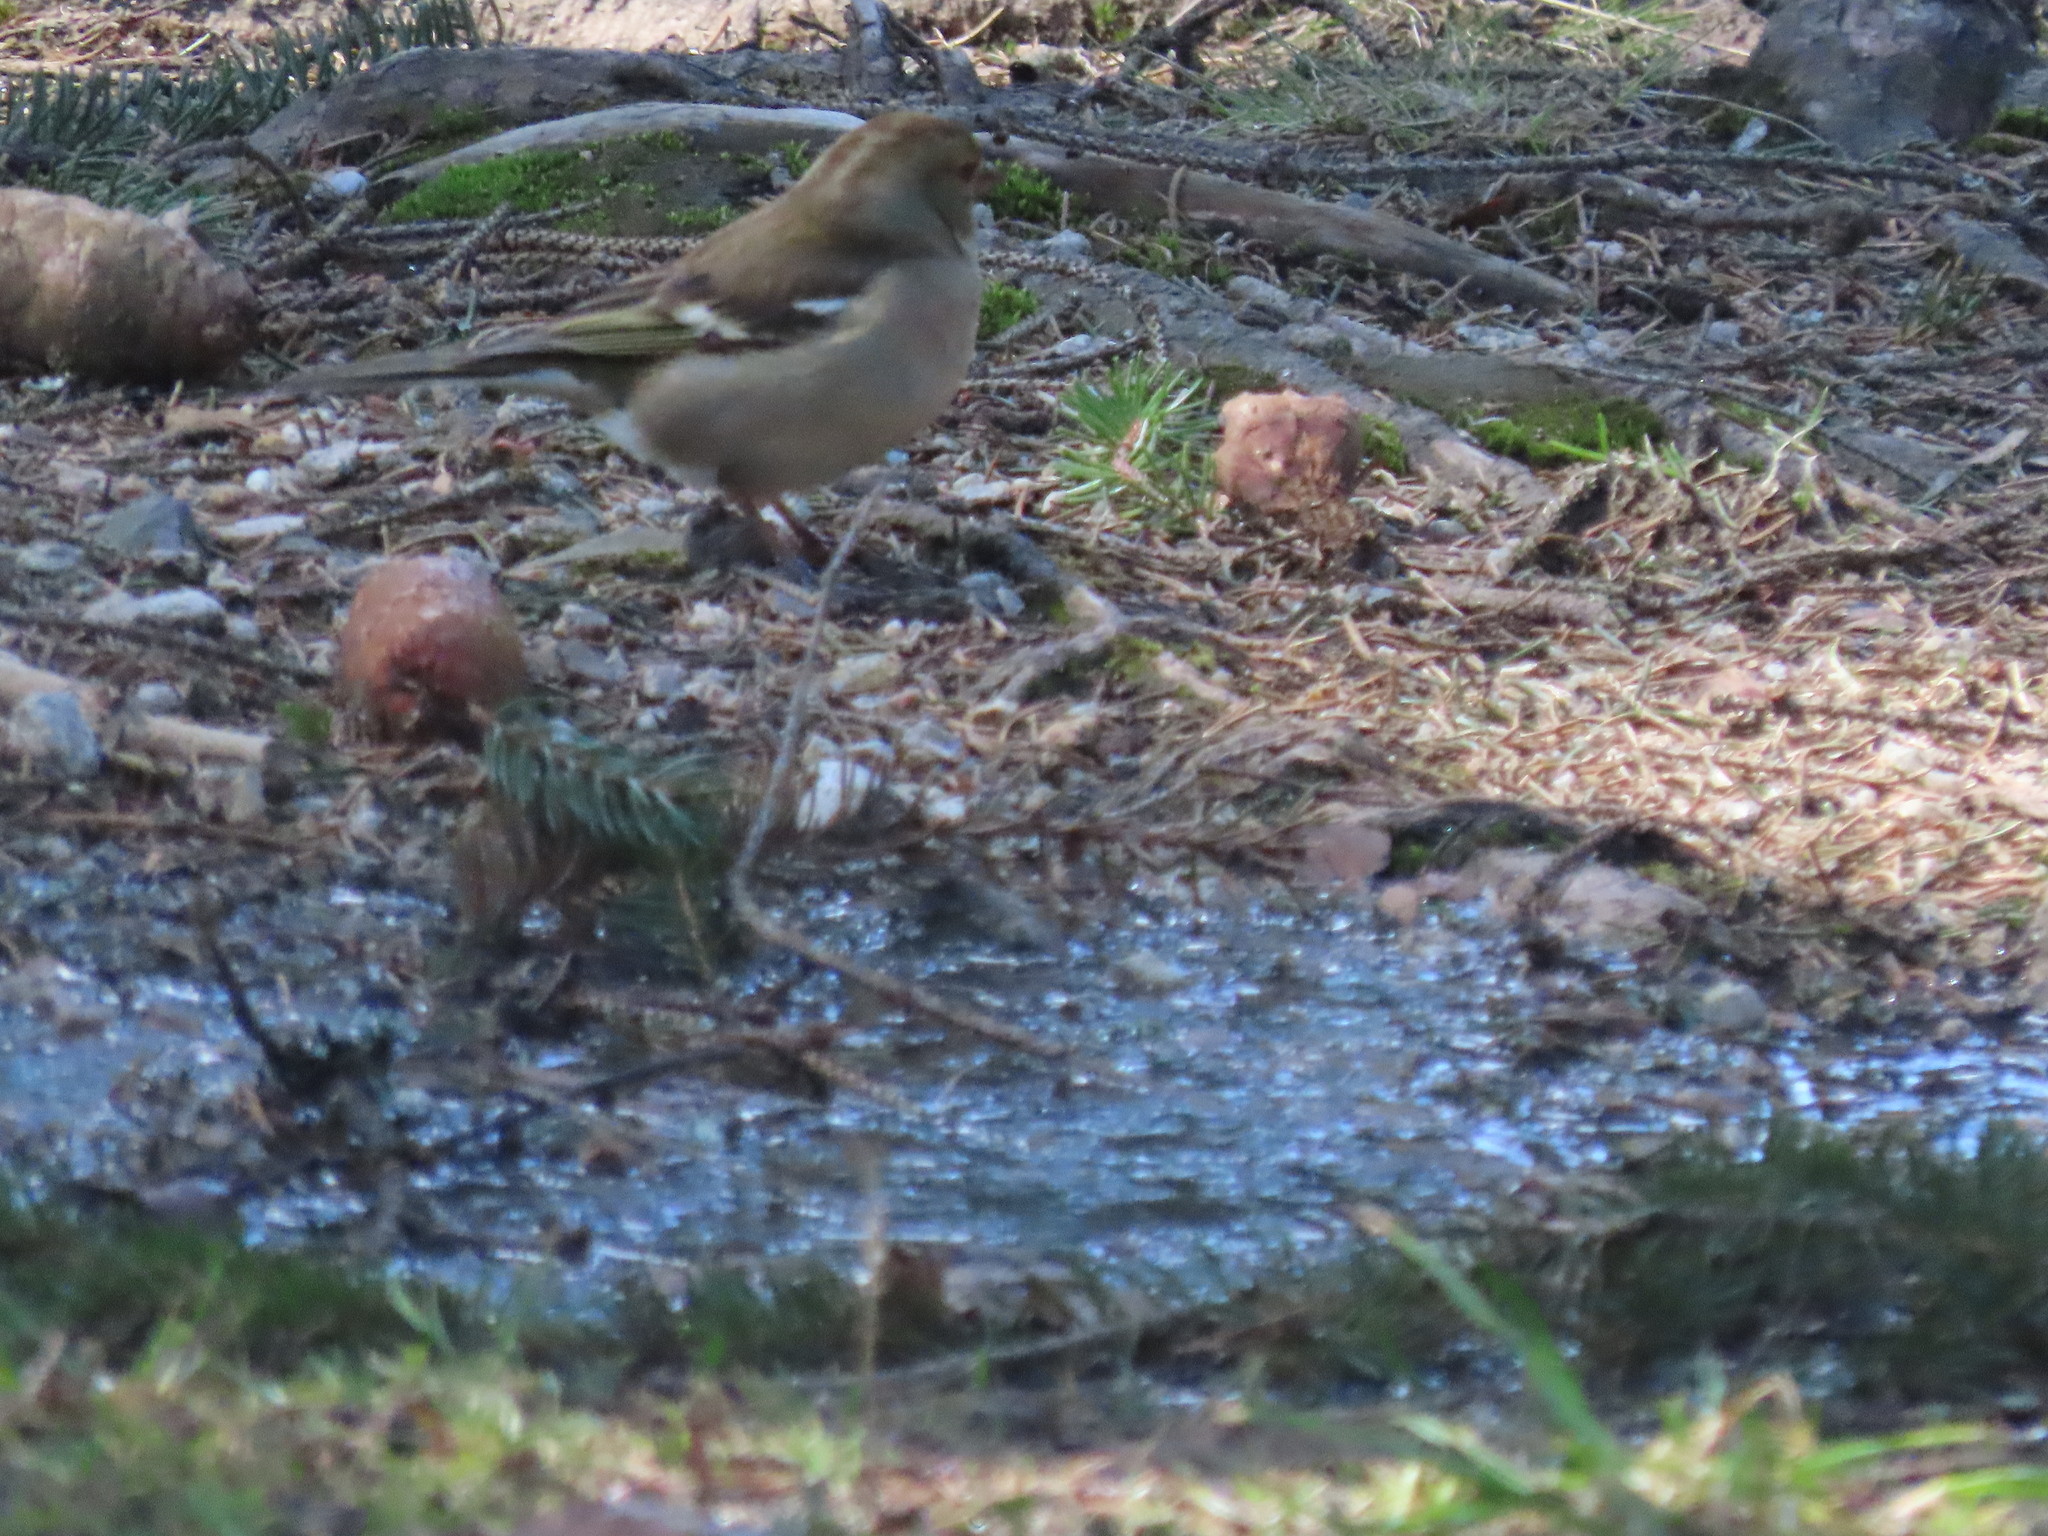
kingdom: Animalia
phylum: Chordata
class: Aves
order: Passeriformes
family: Fringillidae
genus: Fringilla
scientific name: Fringilla coelebs
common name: Common chaffinch
